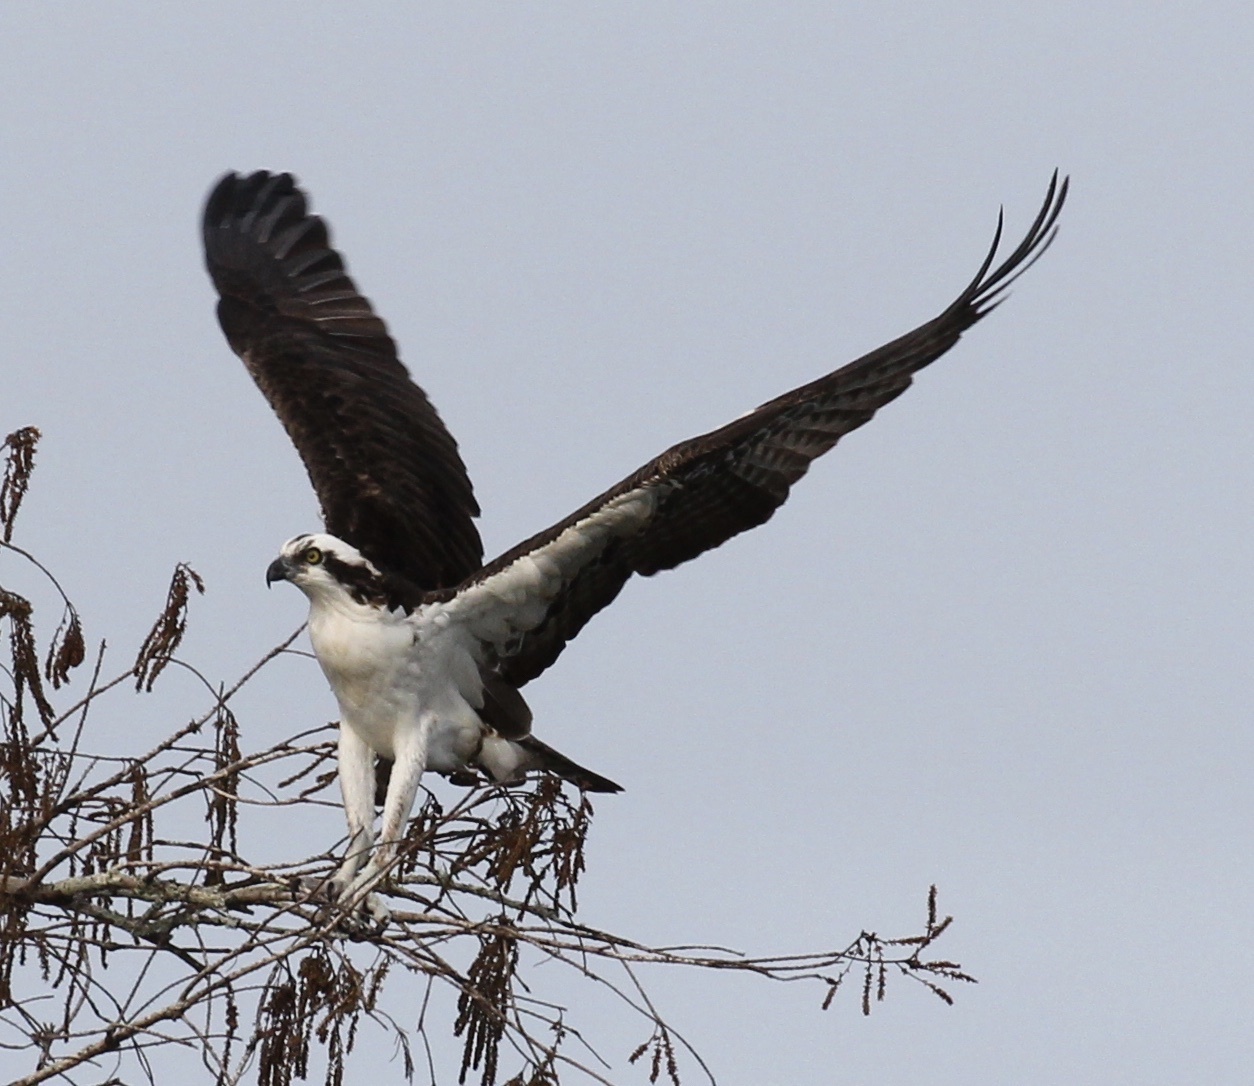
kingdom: Animalia
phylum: Chordata
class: Aves
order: Accipitriformes
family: Pandionidae
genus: Pandion
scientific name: Pandion haliaetus
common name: Osprey
